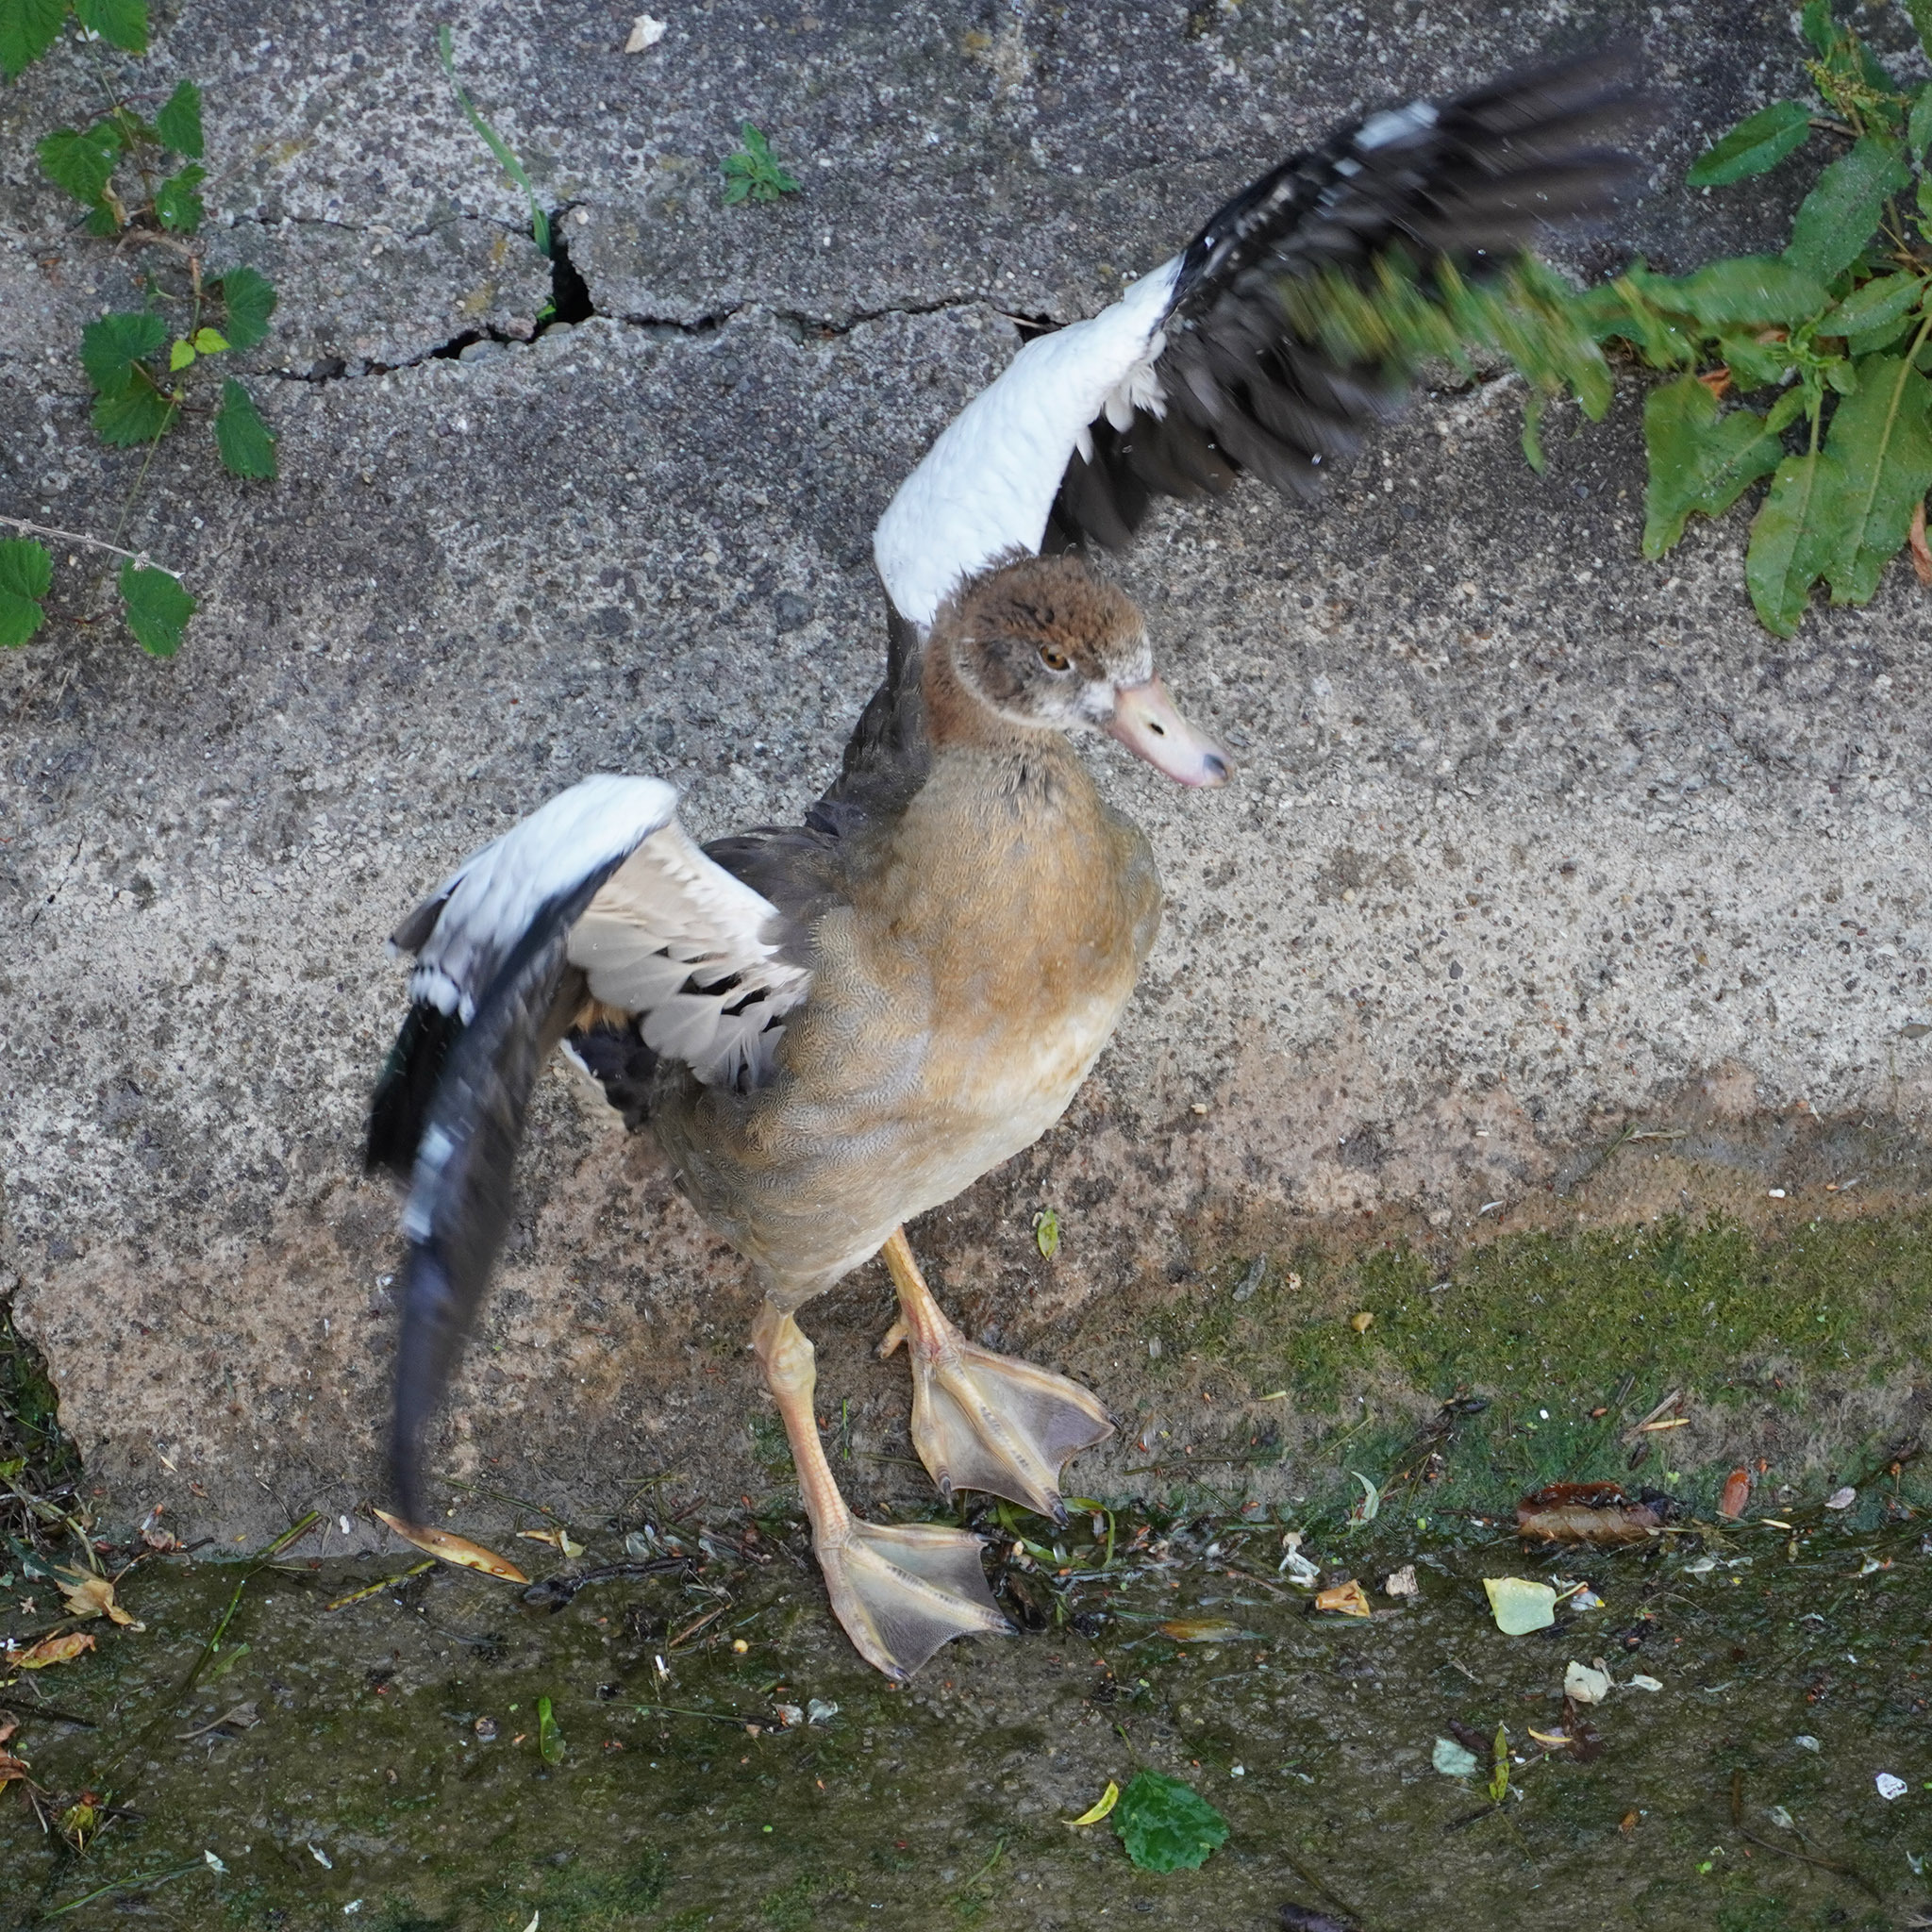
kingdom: Animalia
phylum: Chordata
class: Aves
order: Anseriformes
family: Anatidae
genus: Alopochen
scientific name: Alopochen aegyptiaca
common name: Egyptian goose
